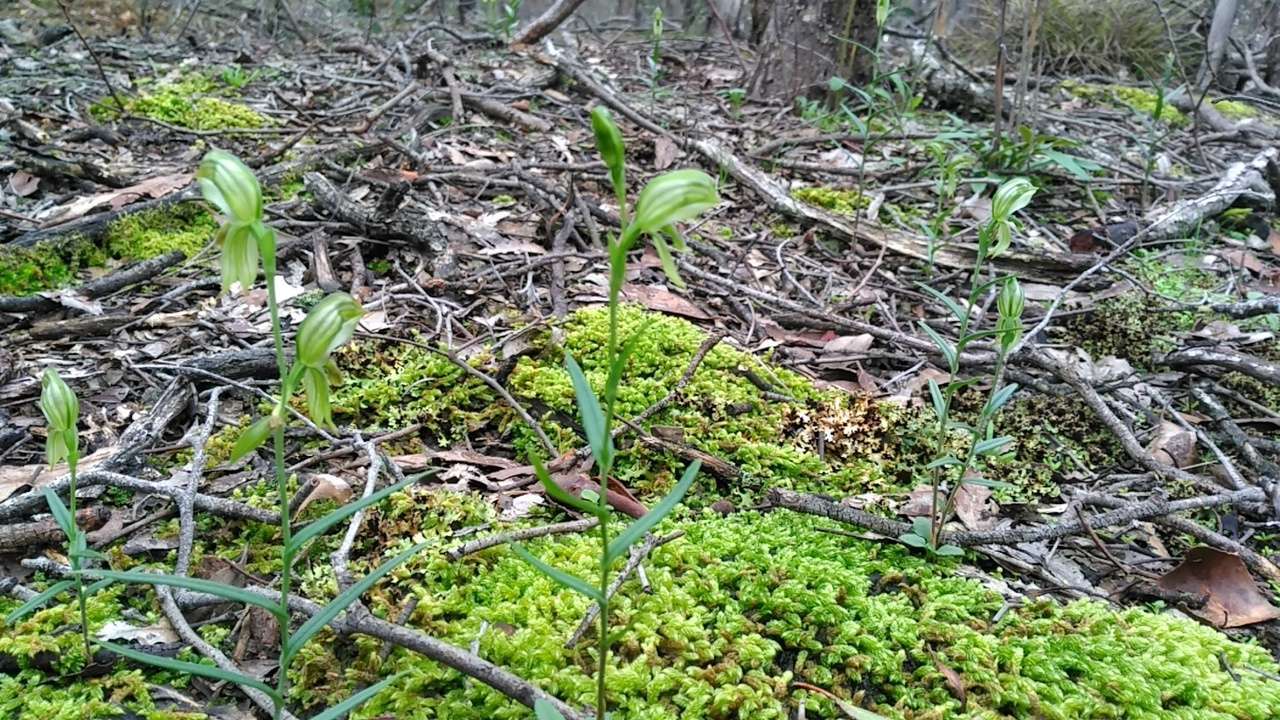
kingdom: Plantae
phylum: Tracheophyta
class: Liliopsida
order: Asparagales
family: Orchidaceae
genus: Pterostylis
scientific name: Pterostylis smaragdyna
